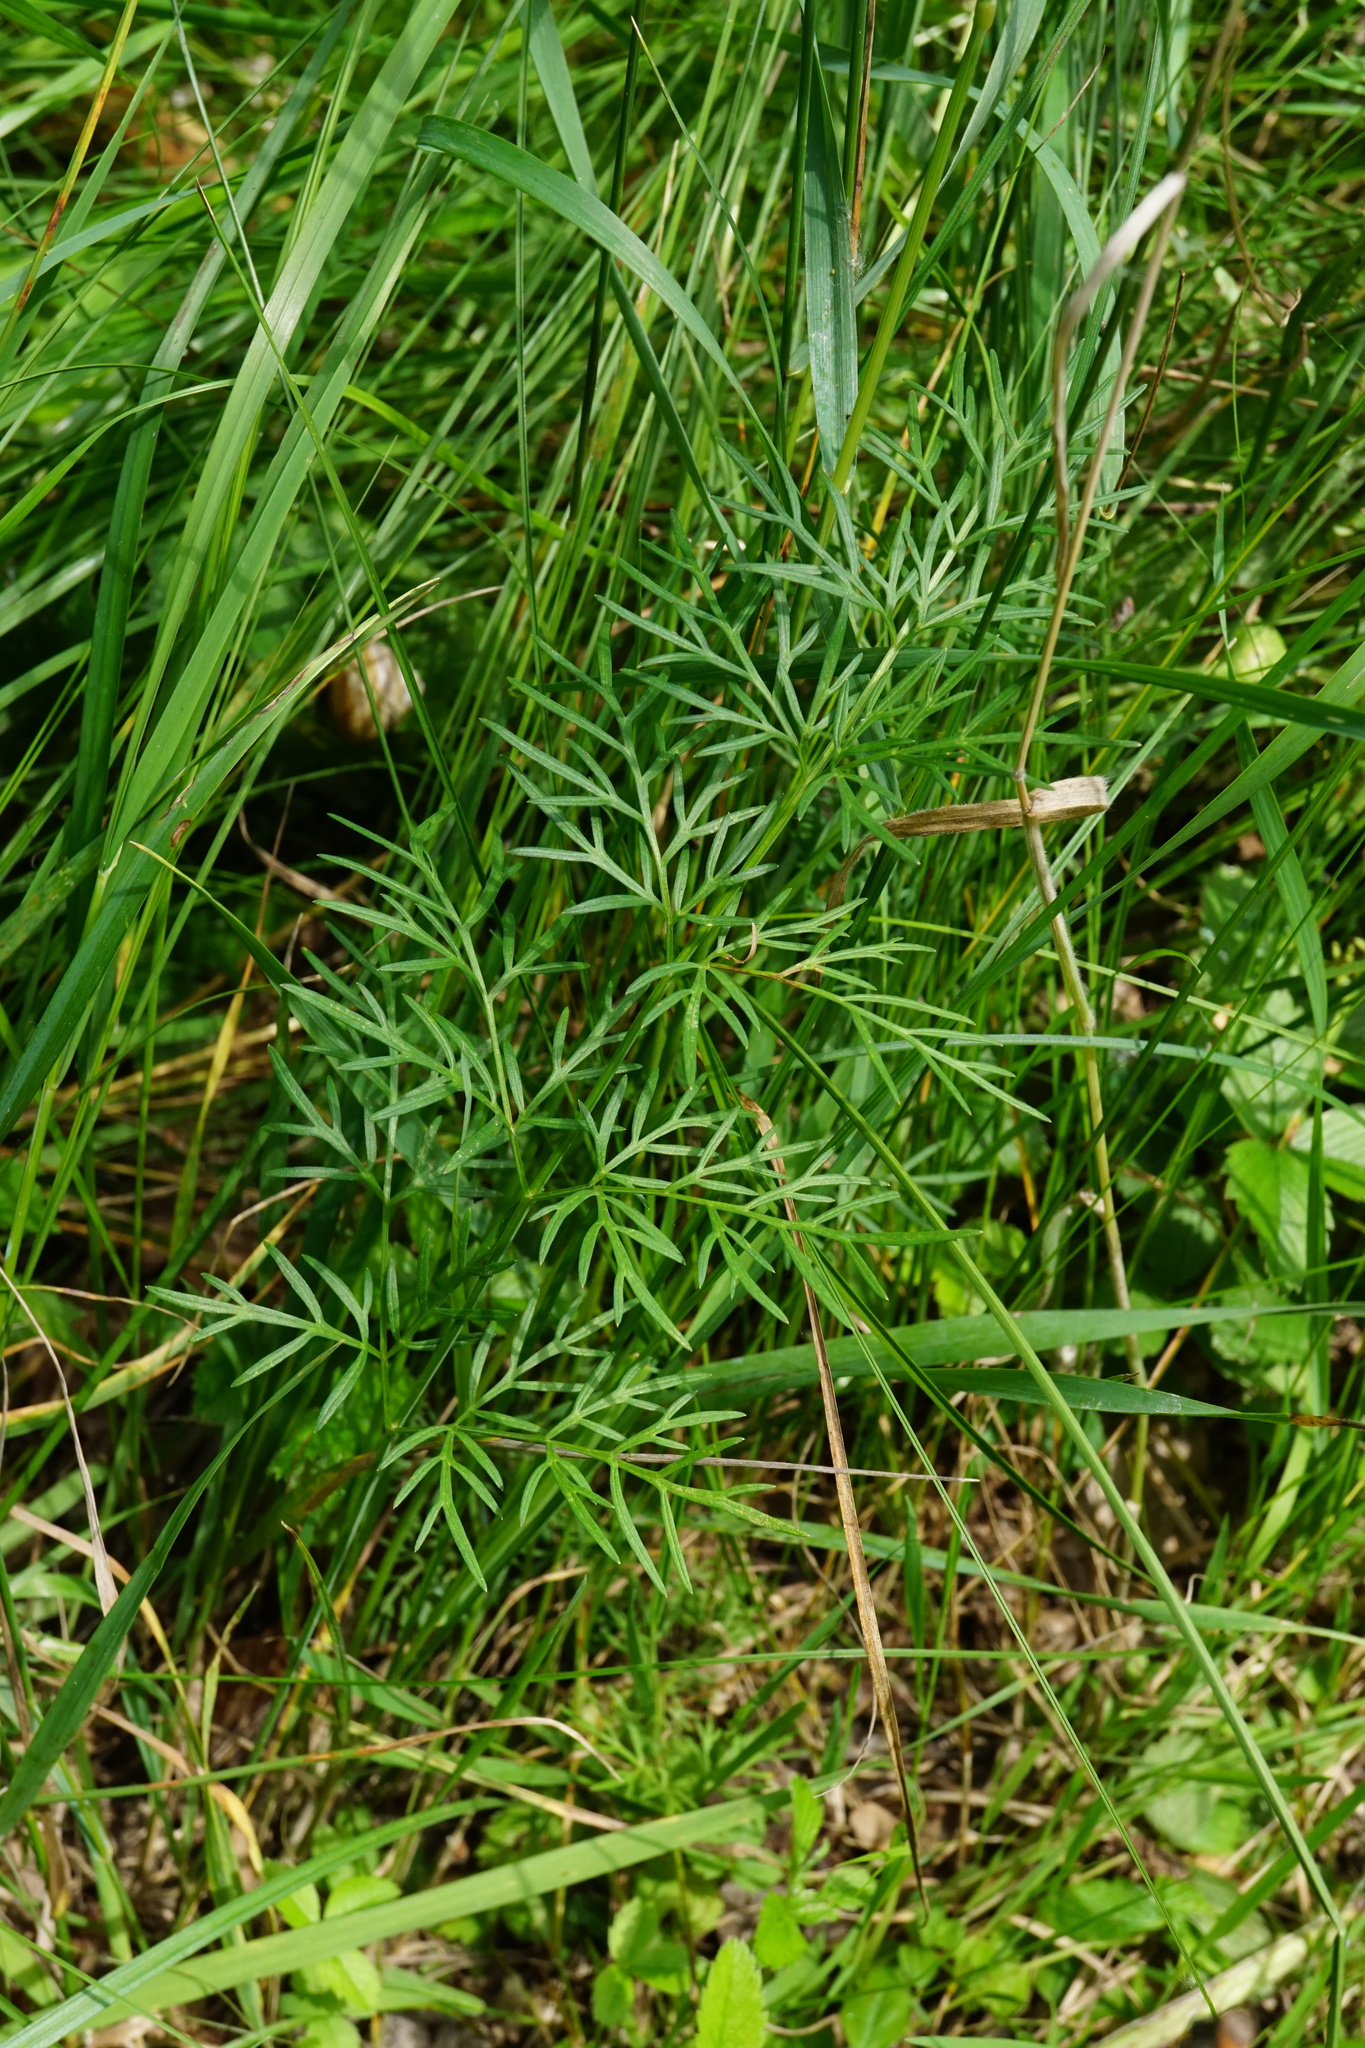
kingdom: Plantae
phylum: Tracheophyta
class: Magnoliopsida
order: Apiales
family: Apiaceae
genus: Kadenia
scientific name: Kadenia dubia
